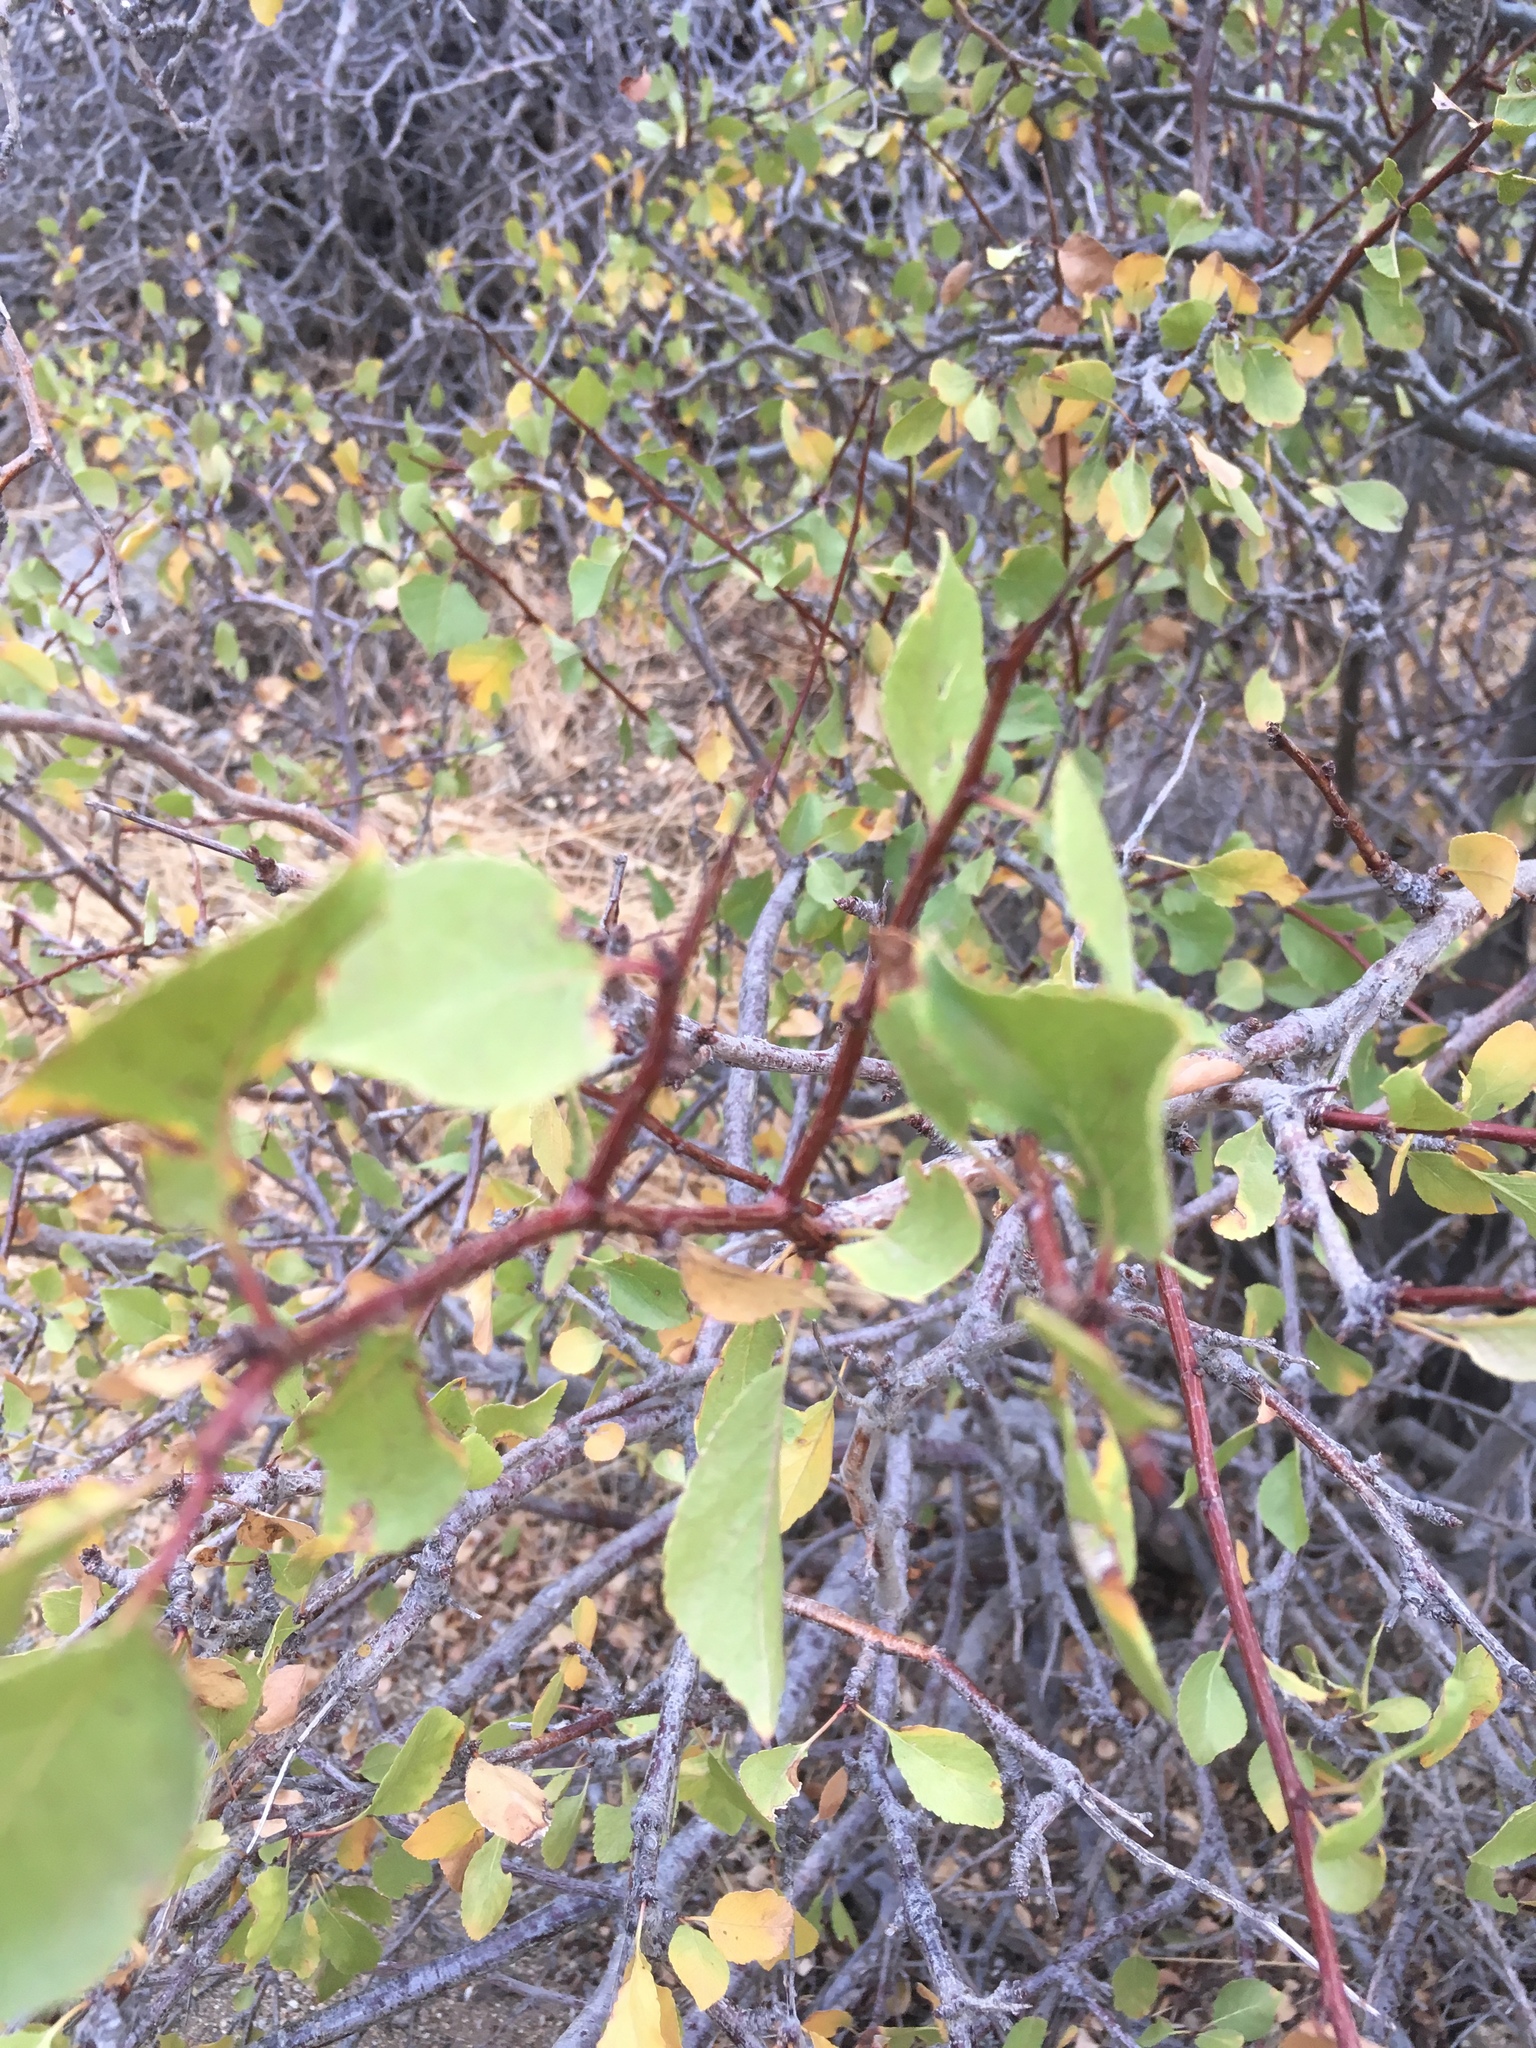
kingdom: Plantae
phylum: Tracheophyta
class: Magnoliopsida
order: Rosales
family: Rosaceae
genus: Prunus
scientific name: Prunus fremontii
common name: Desert apricot
